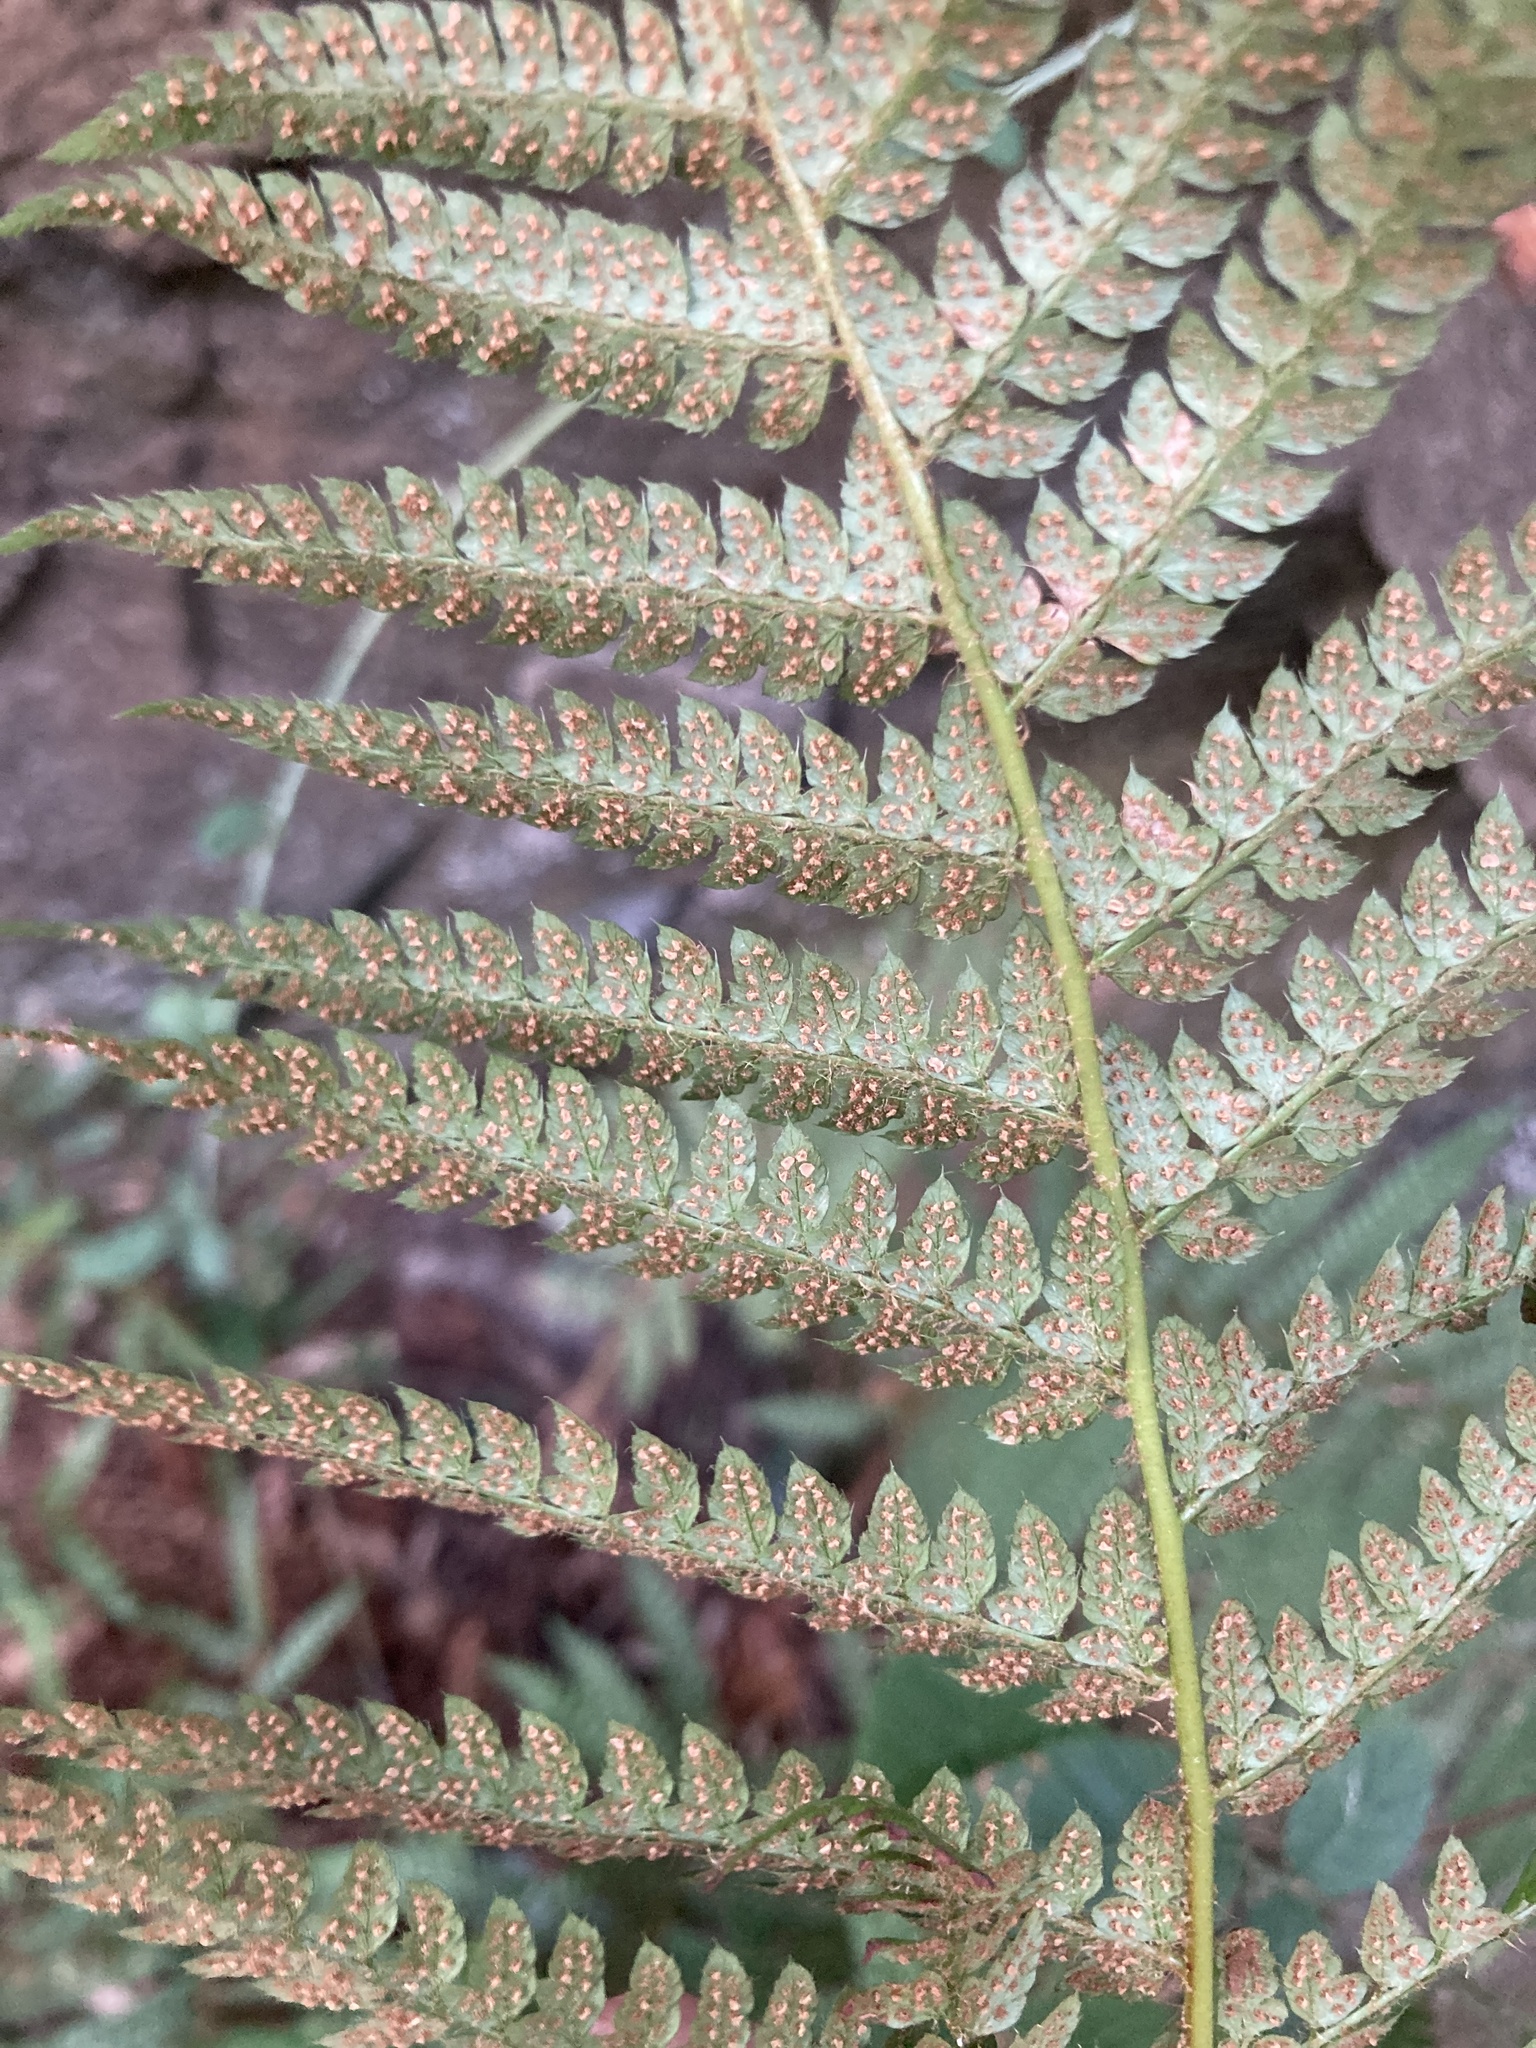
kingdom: Plantae
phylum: Tracheophyta
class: Polypodiopsida
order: Polypodiales
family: Dryopteridaceae
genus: Polystichum
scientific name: Polystichum setiferum
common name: Soft shield-fern
